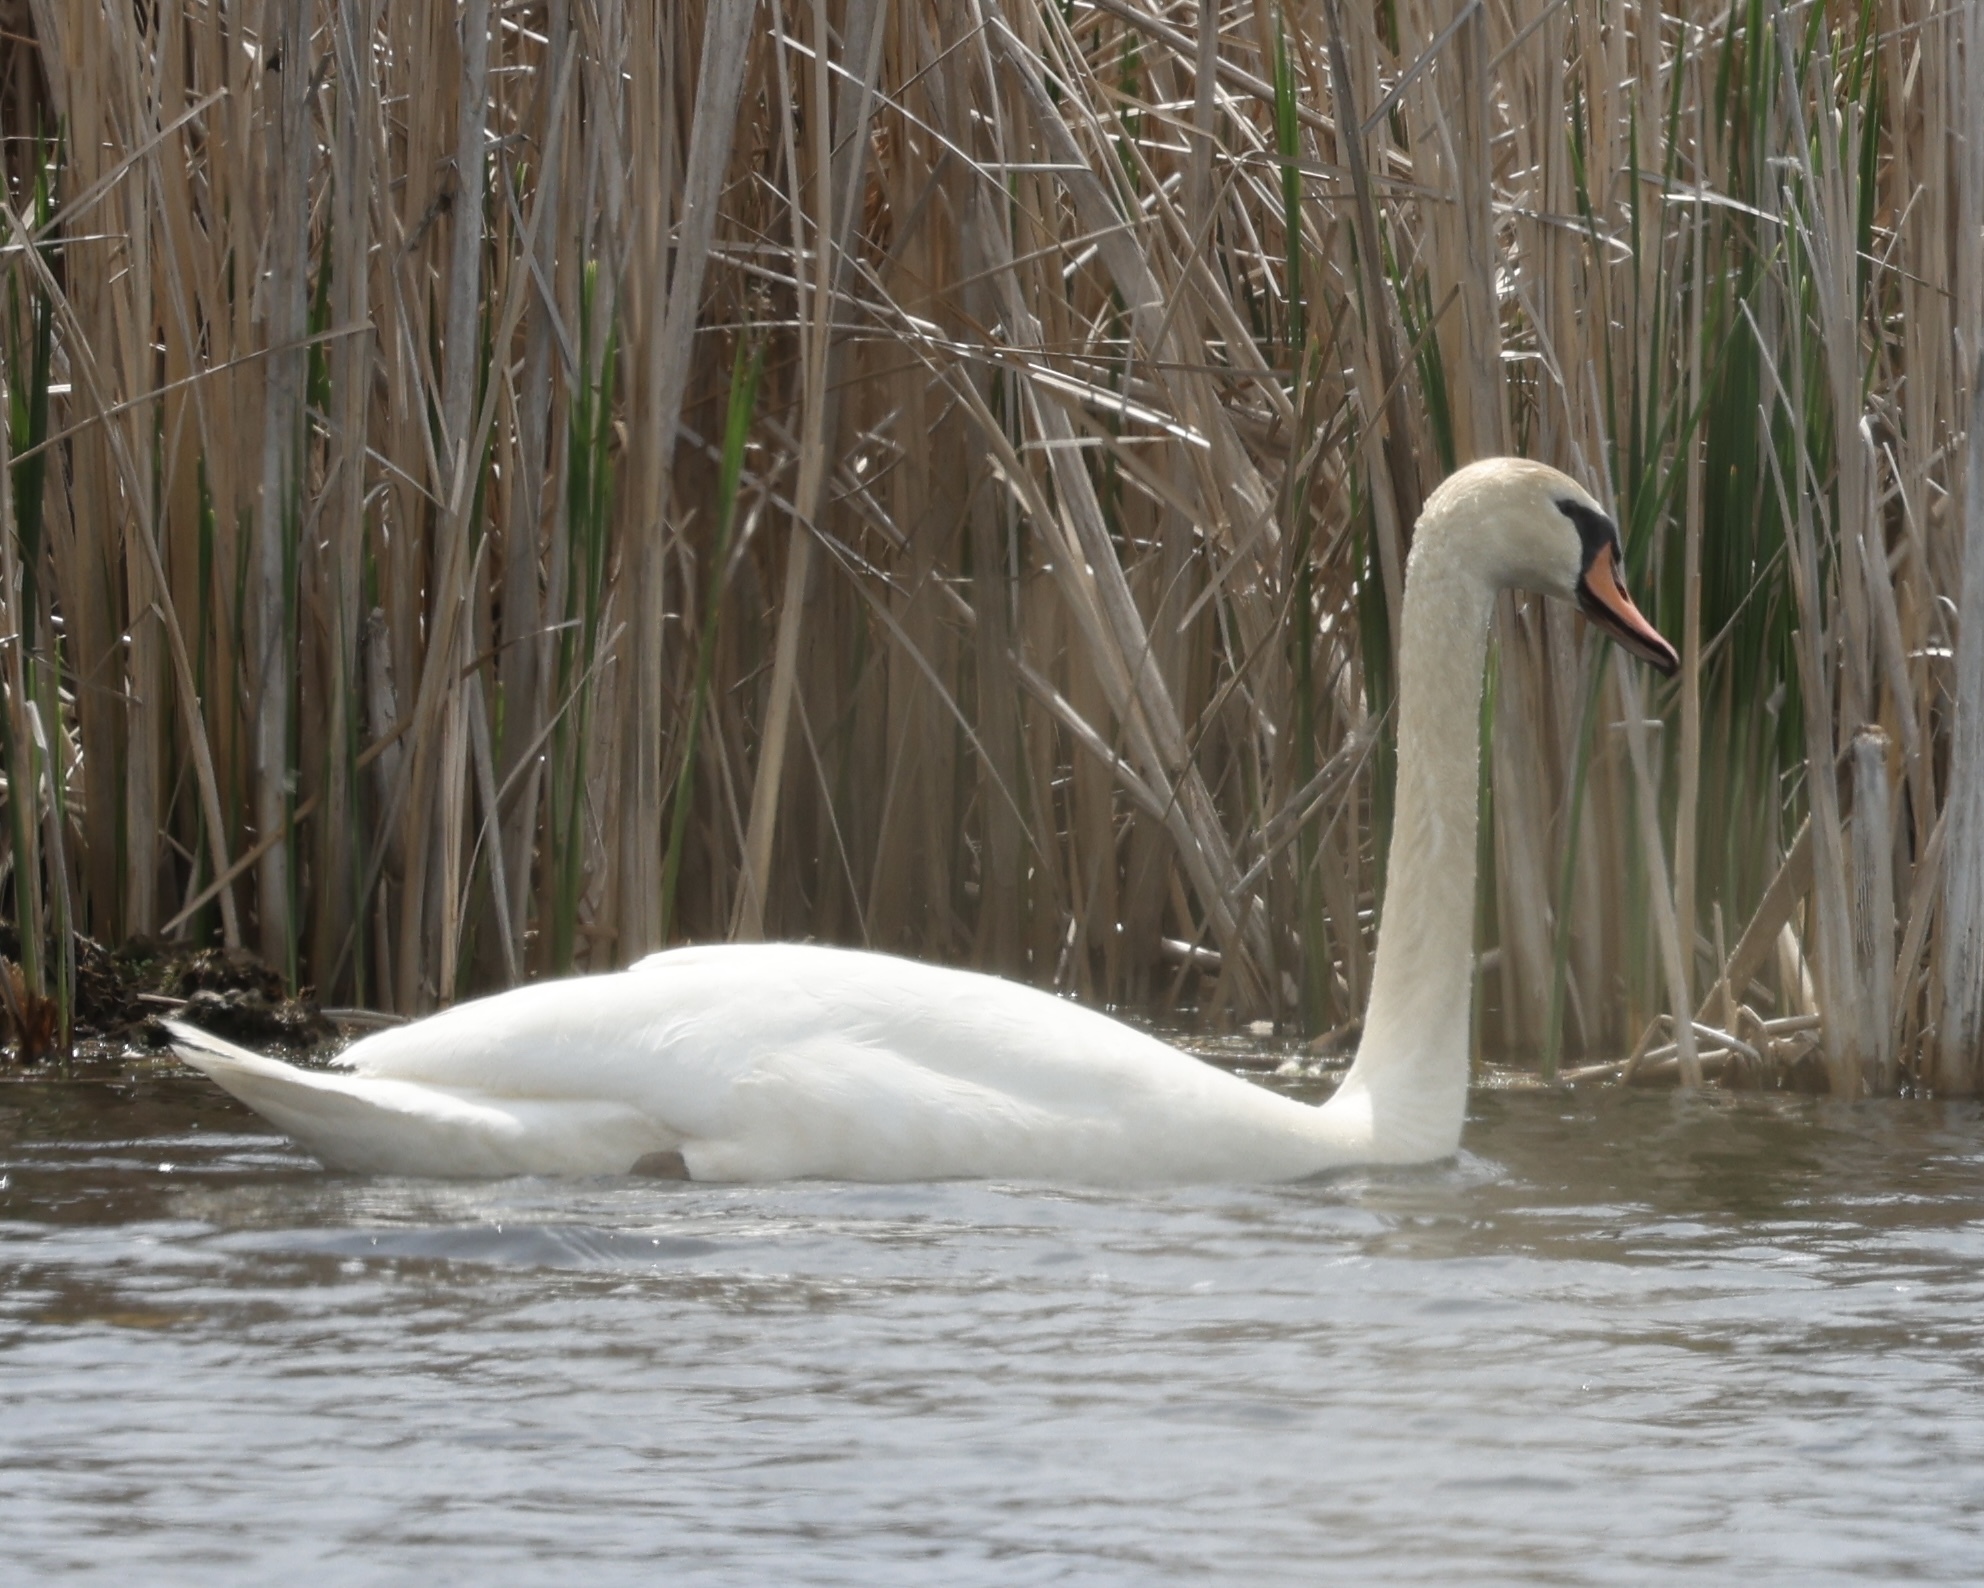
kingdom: Animalia
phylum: Chordata
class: Aves
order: Anseriformes
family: Anatidae
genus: Cygnus
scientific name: Cygnus olor
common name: Mute swan
